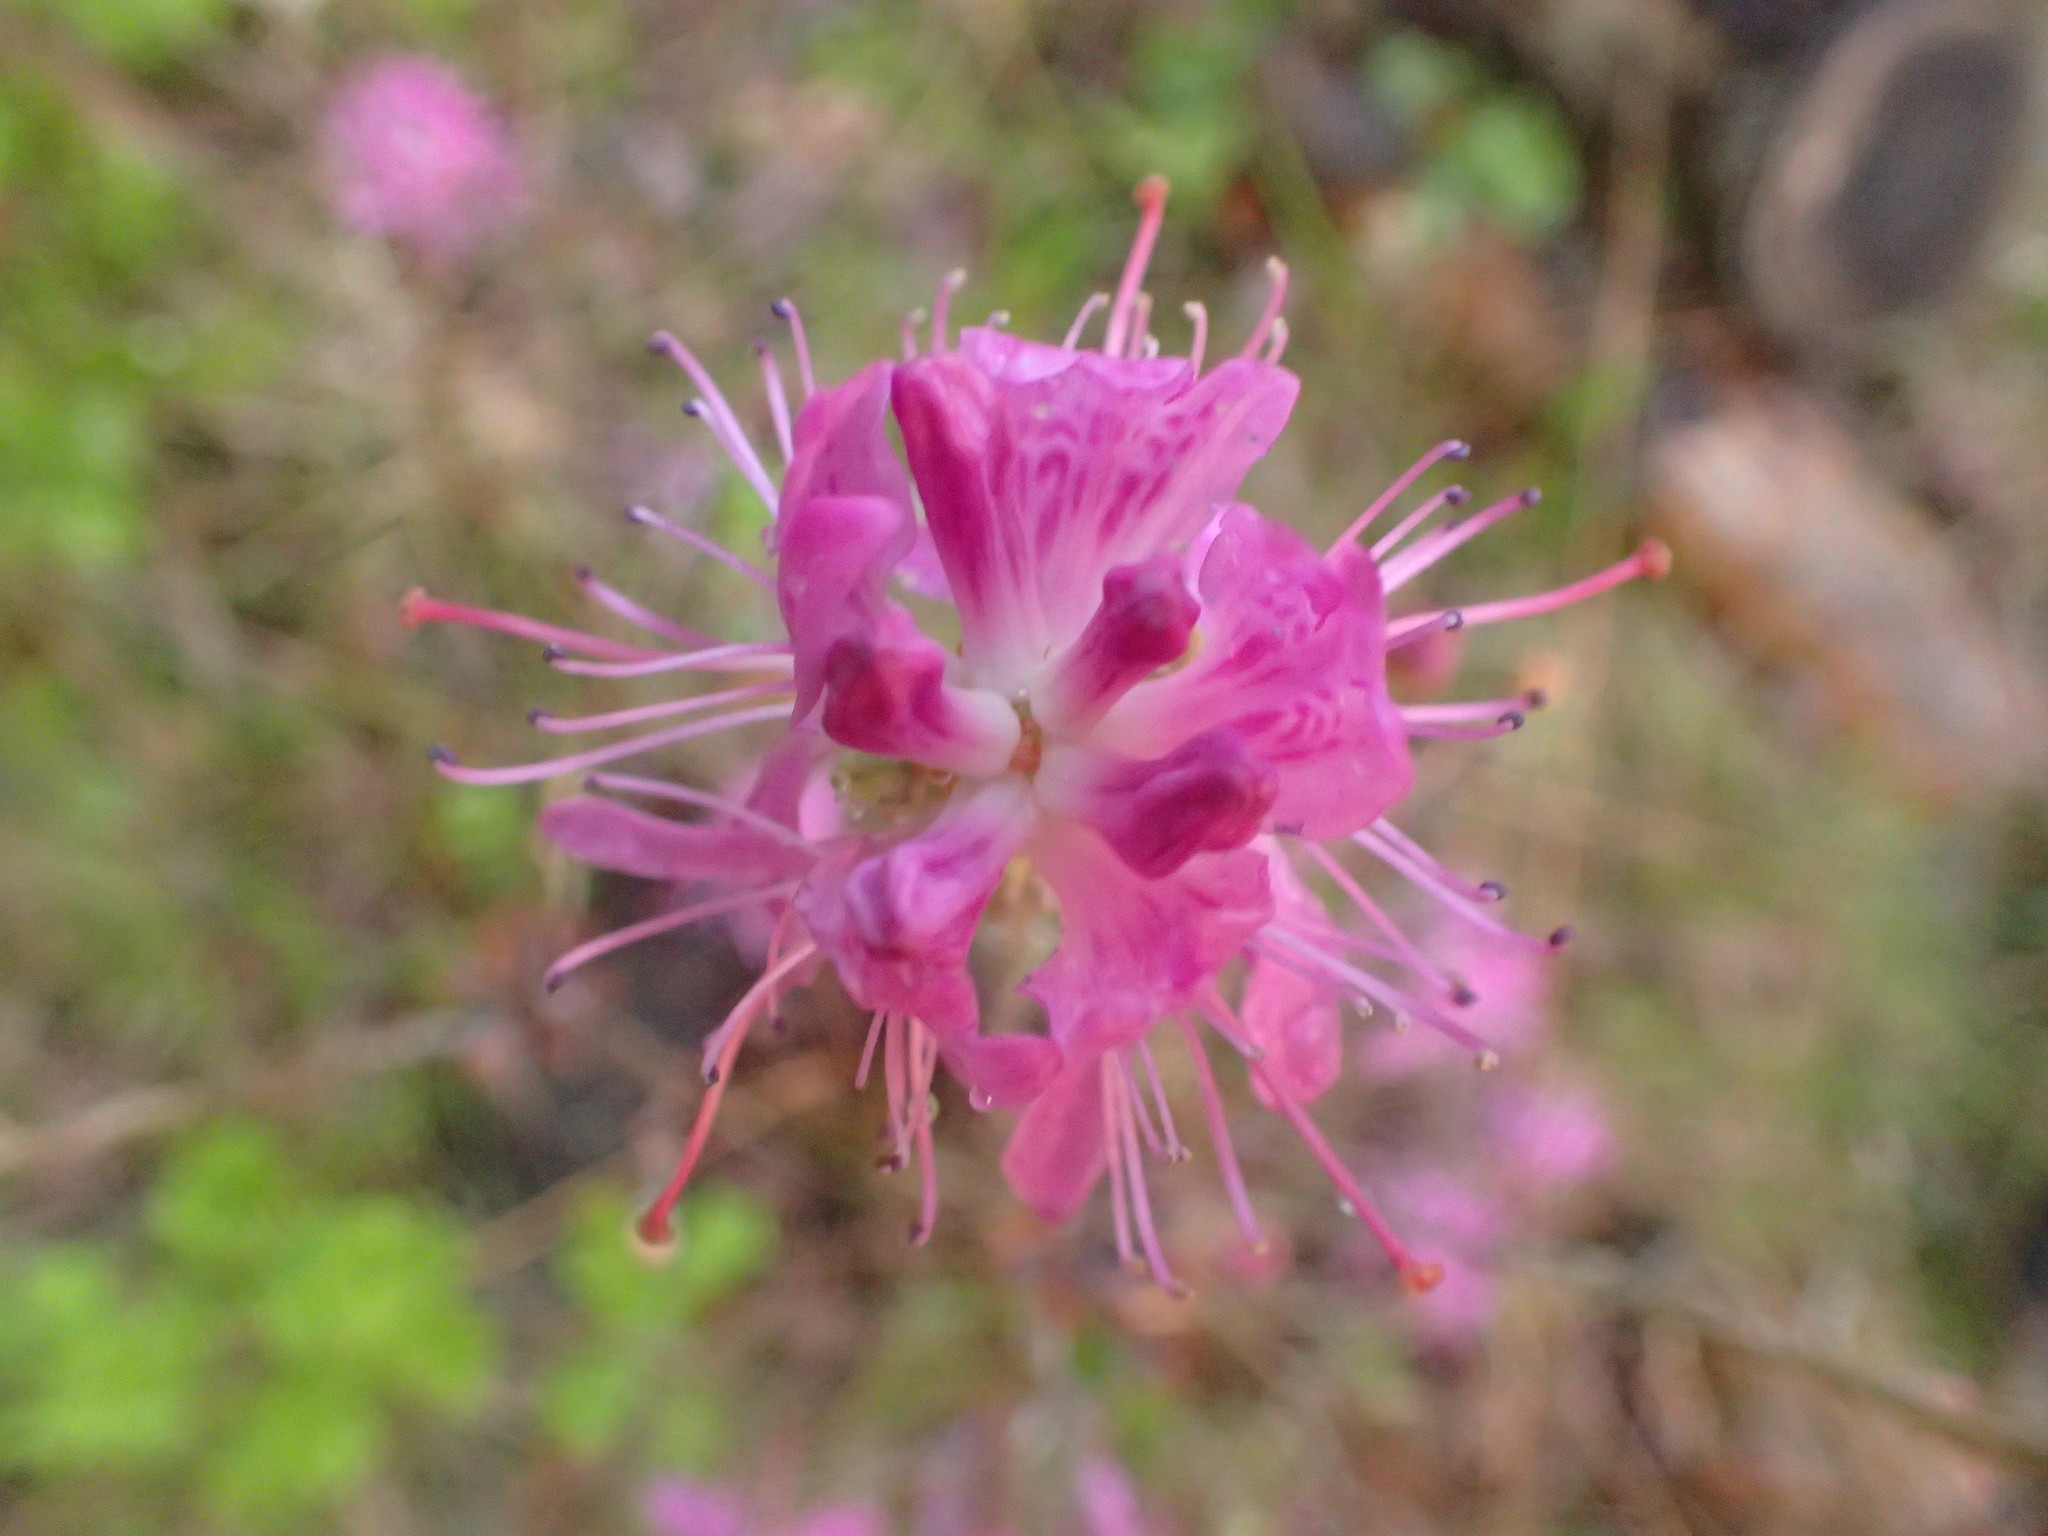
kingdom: Plantae
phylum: Tracheophyta
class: Magnoliopsida
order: Ericales
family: Ericaceae
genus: Rhododendron
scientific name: Rhododendron canadense
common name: Rhodora
